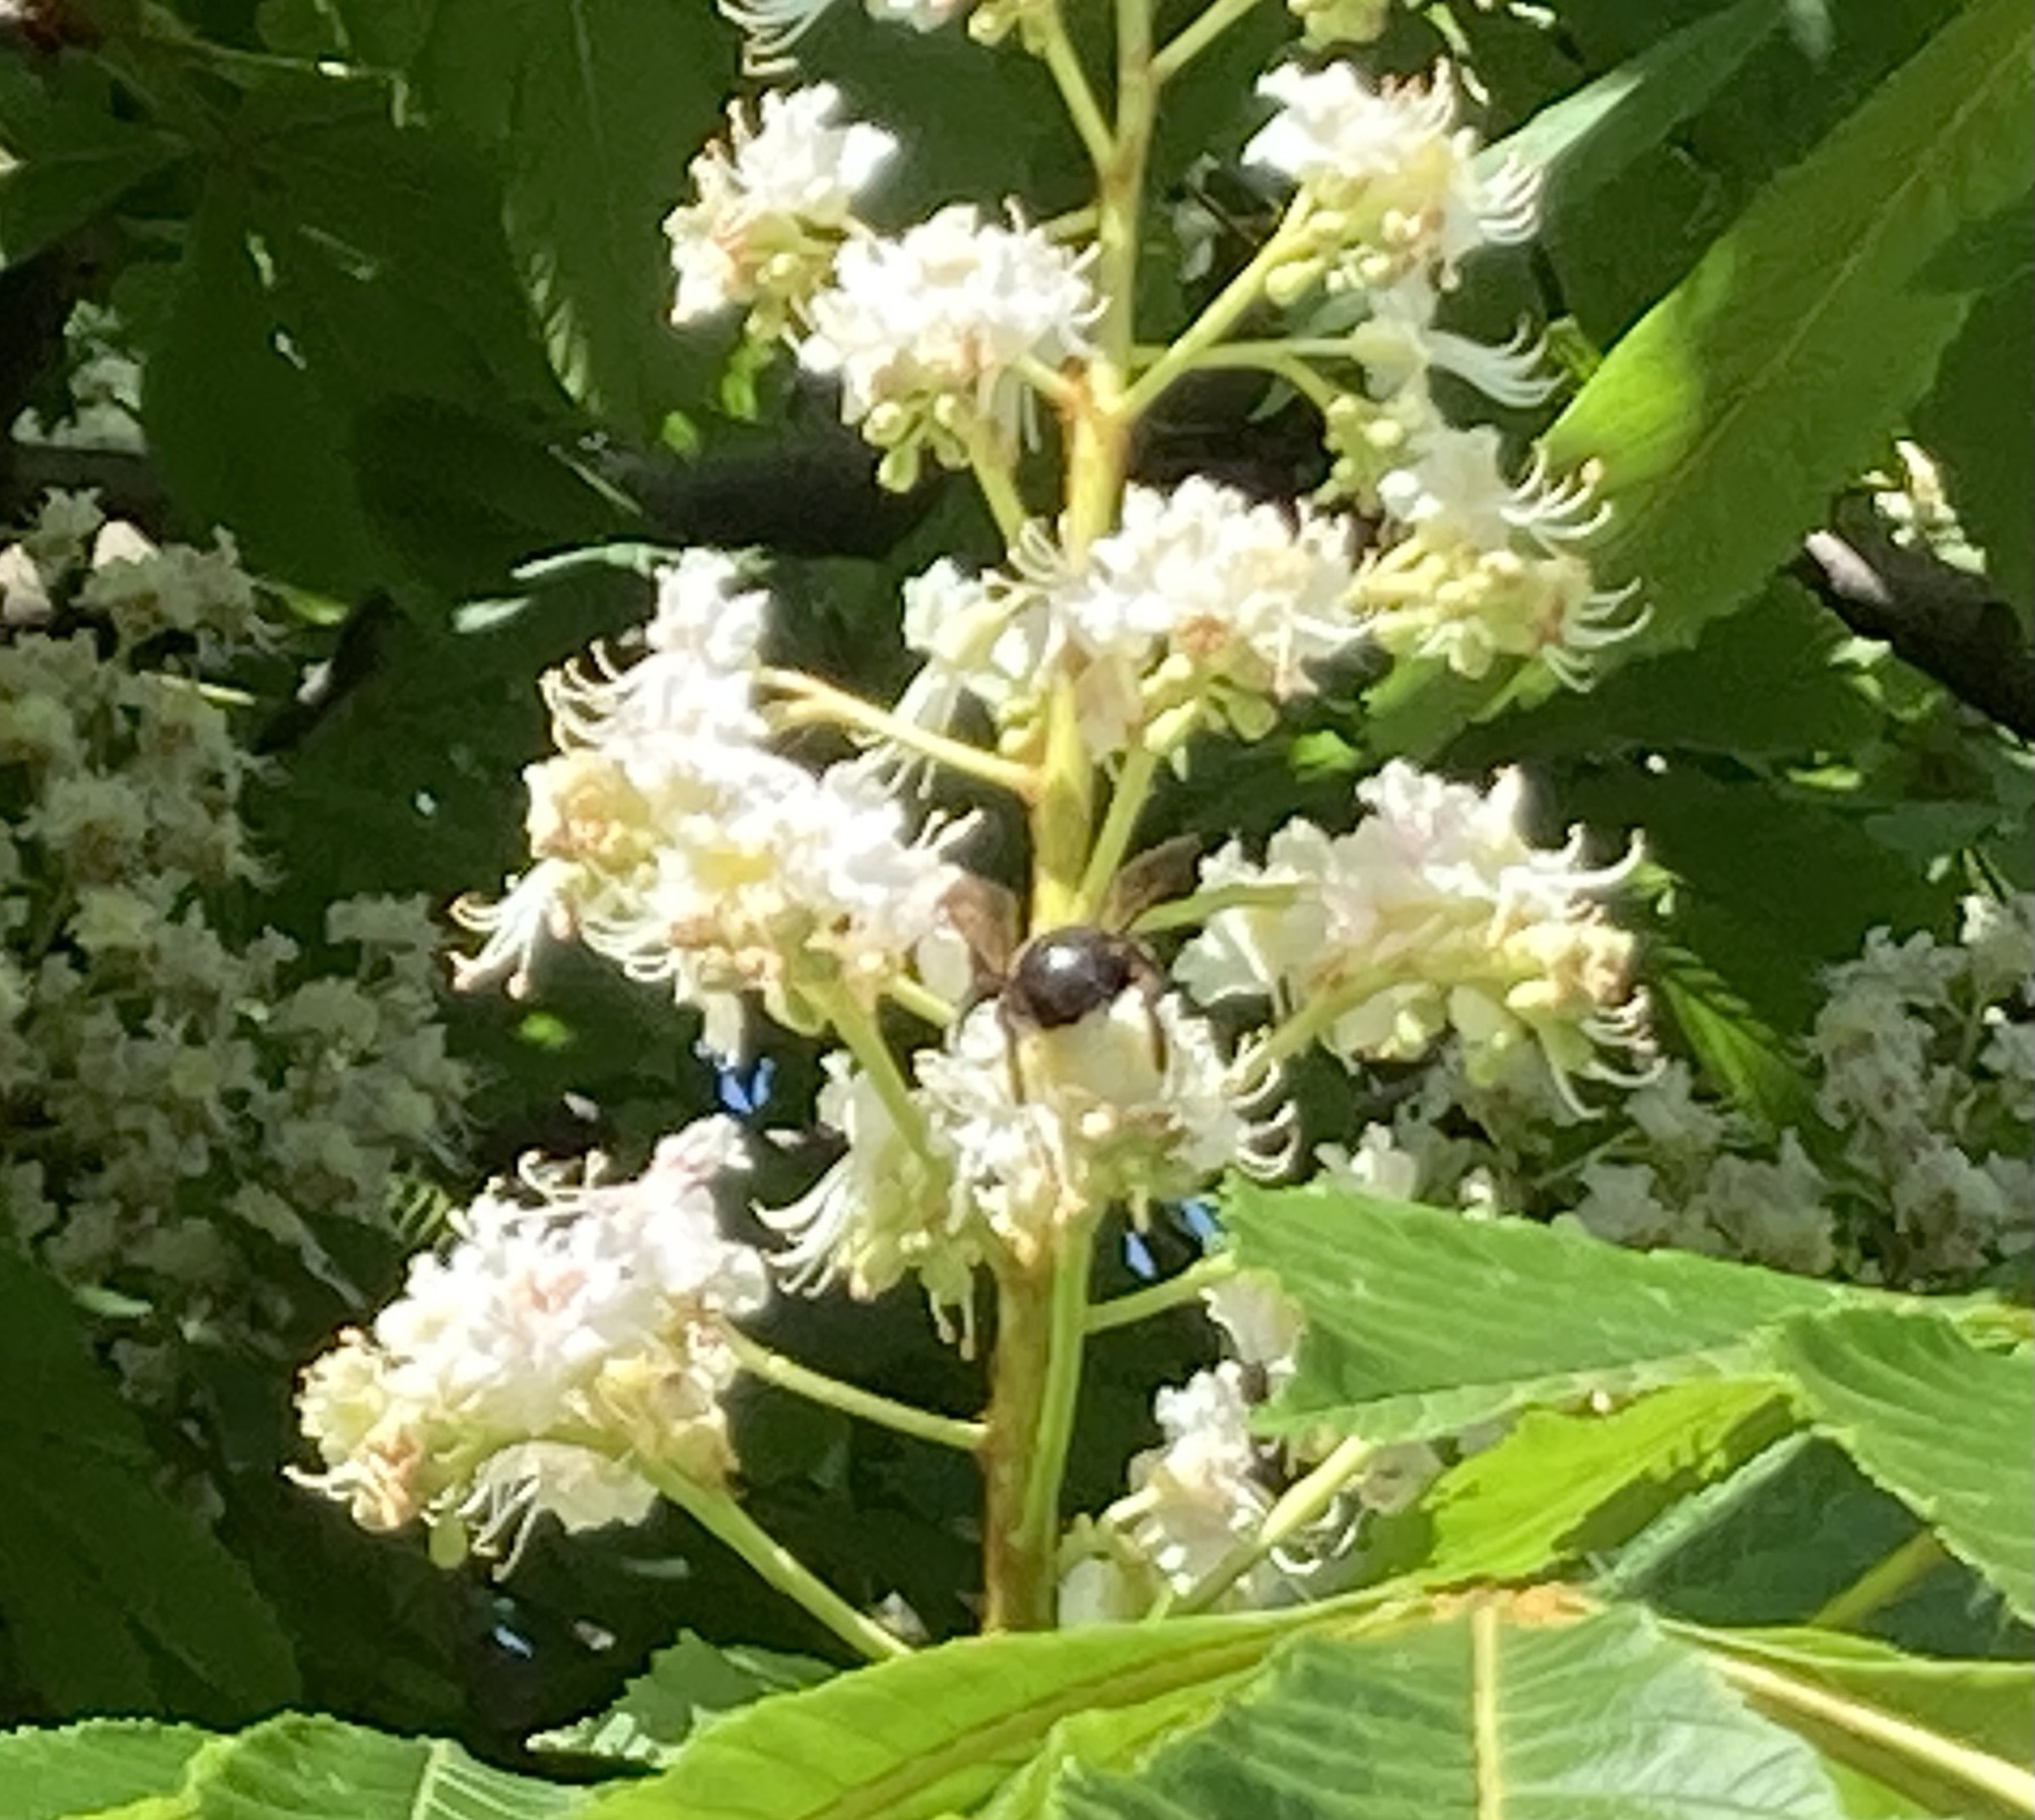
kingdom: Animalia
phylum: Arthropoda
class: Insecta
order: Hymenoptera
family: Apidae
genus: Xylocopa
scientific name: Xylocopa virginica
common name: Carpenter bee
